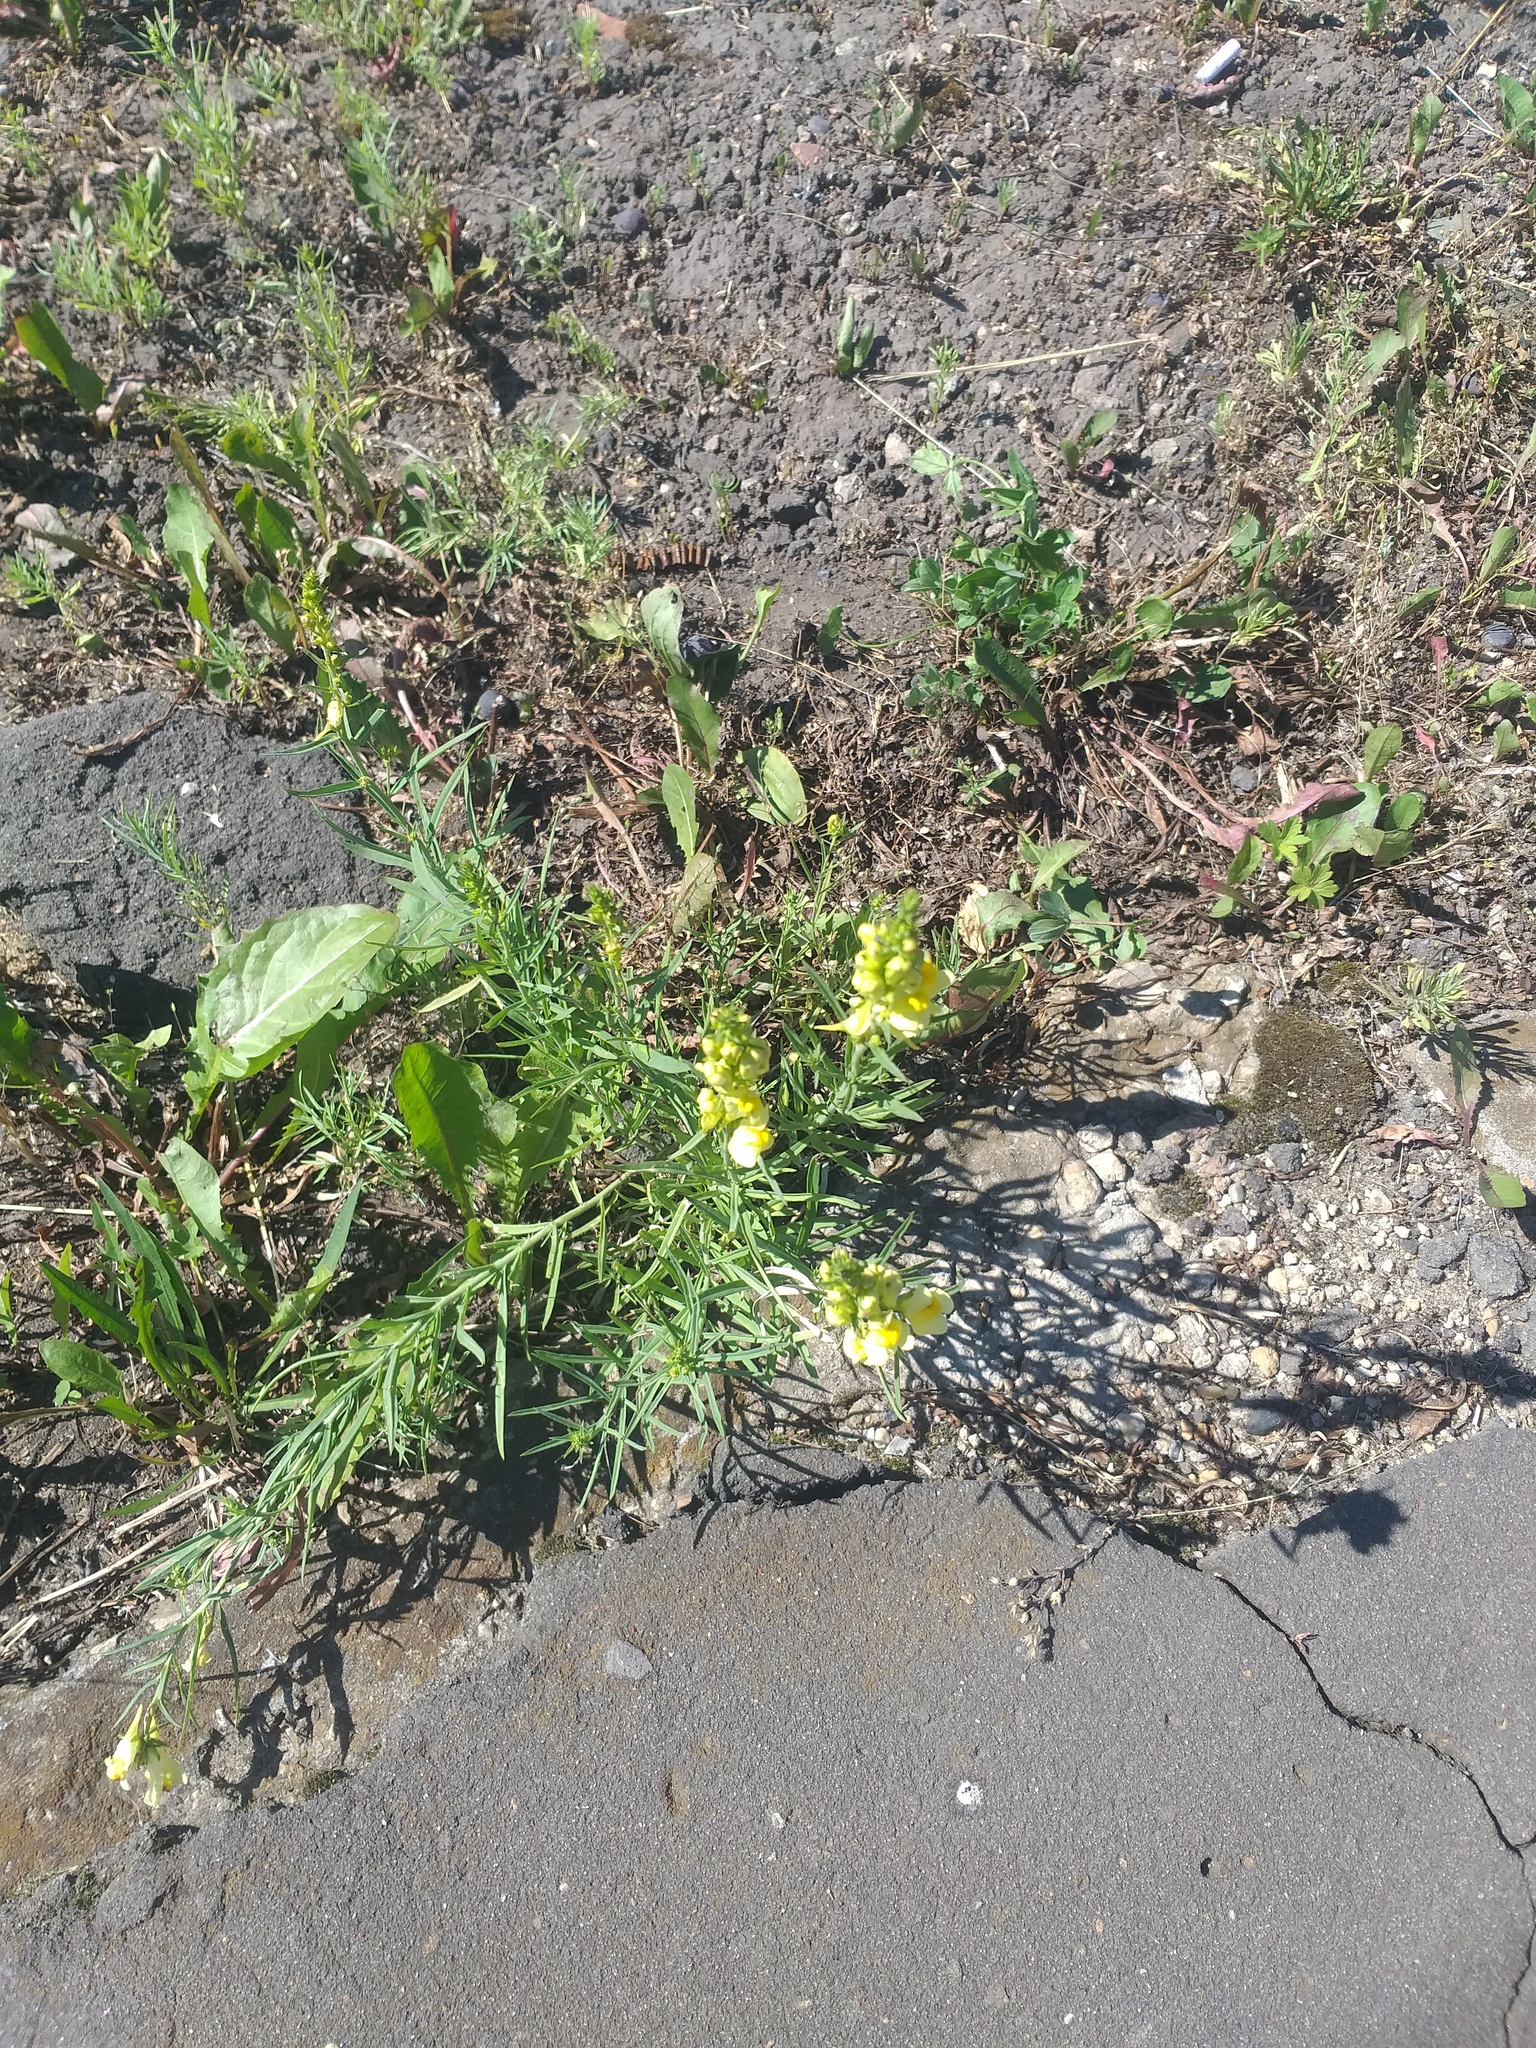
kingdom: Plantae
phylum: Tracheophyta
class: Magnoliopsida
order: Lamiales
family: Plantaginaceae
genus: Linaria
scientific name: Linaria vulgaris
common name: Butter and eggs
